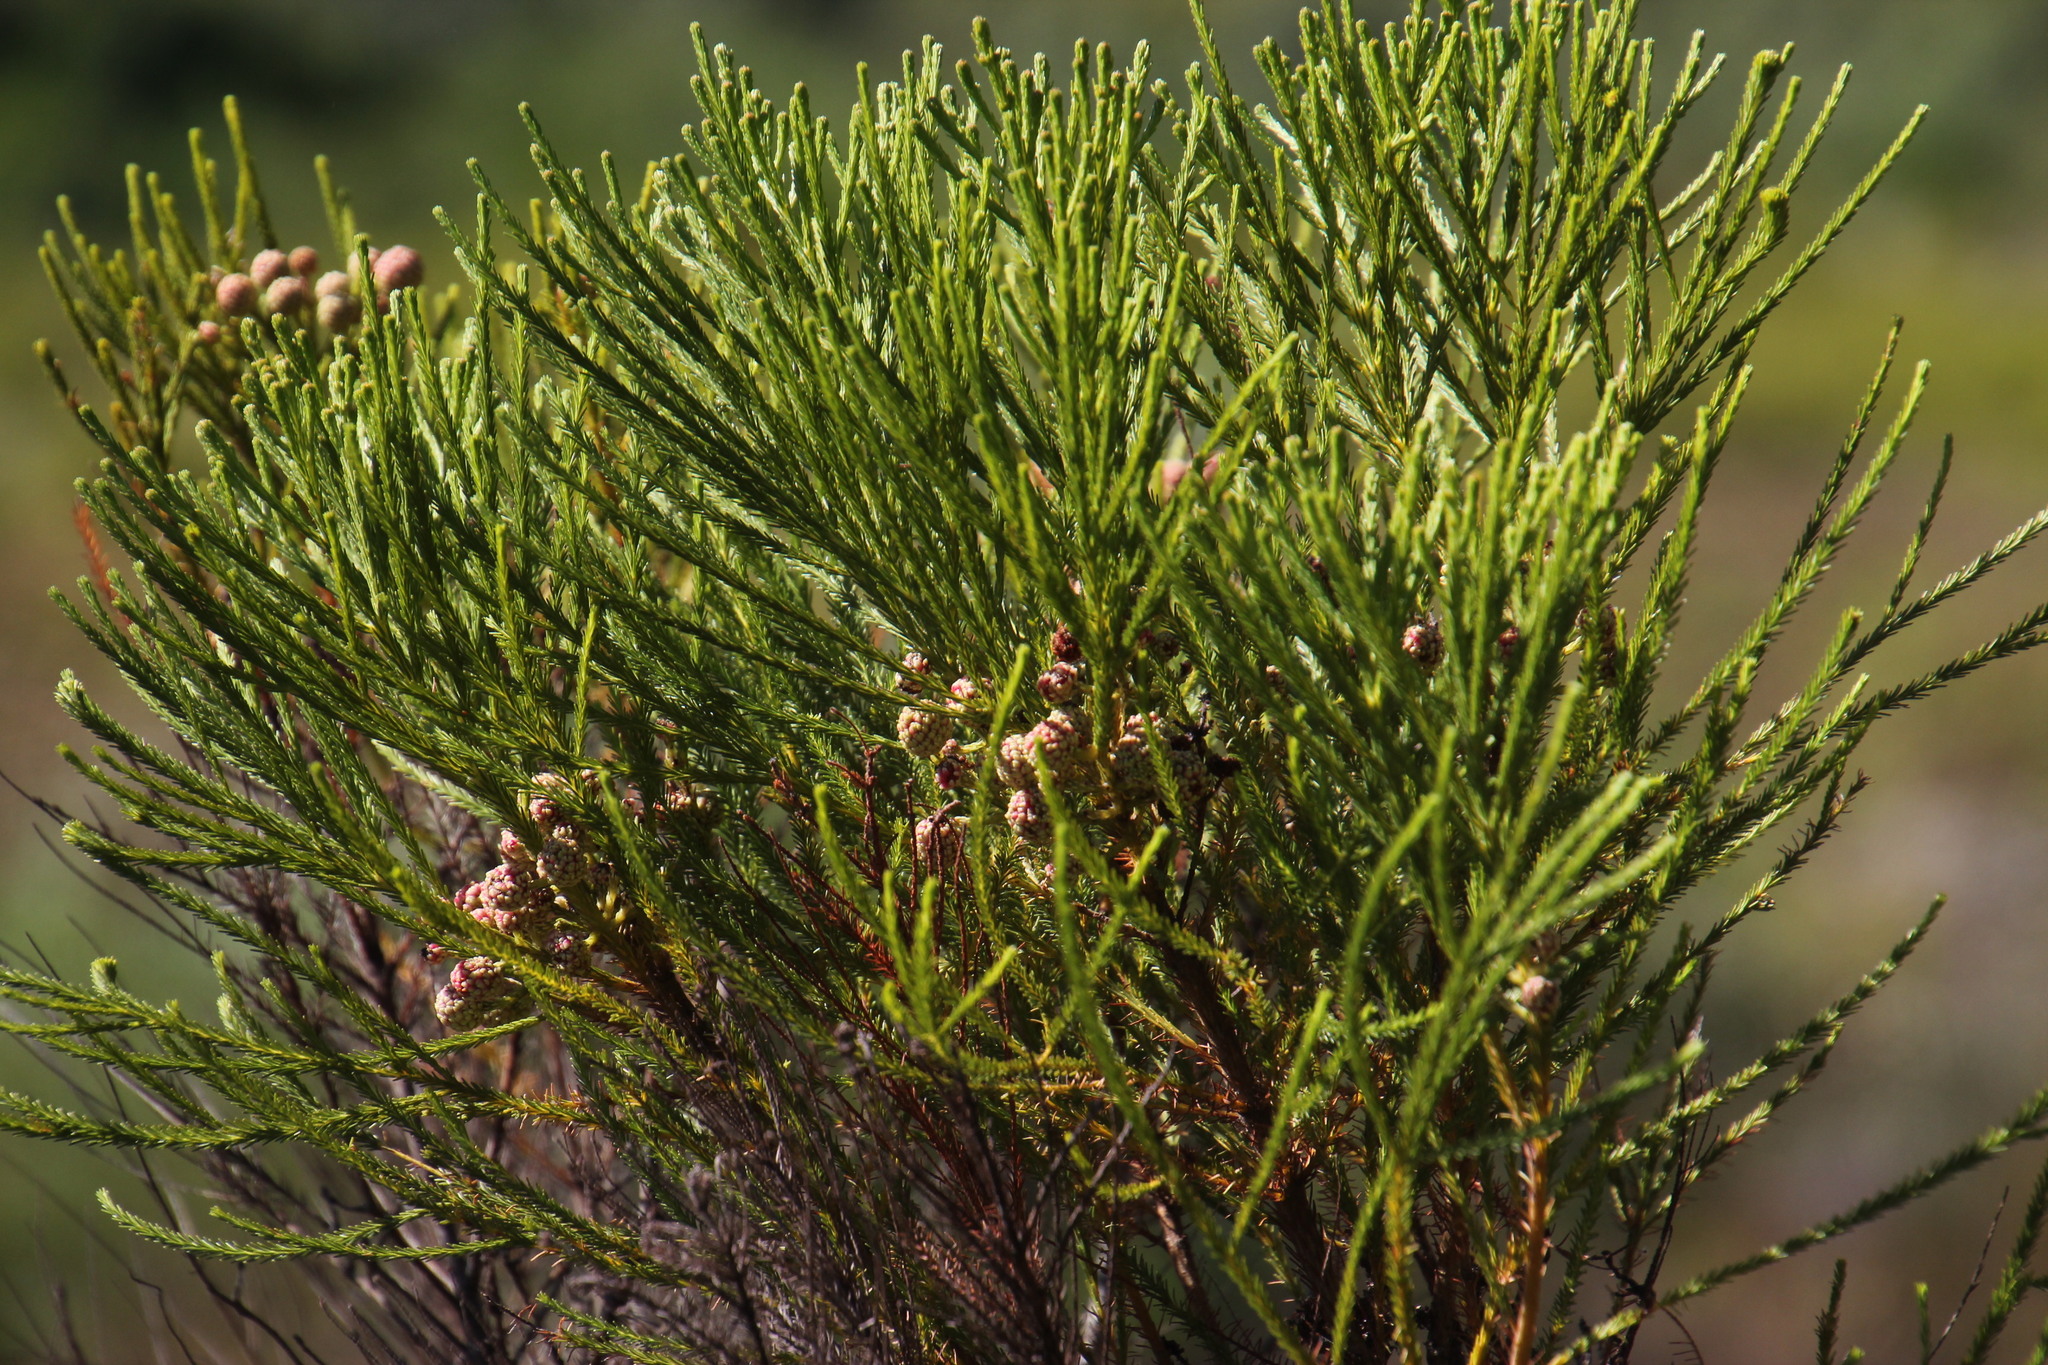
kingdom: Plantae
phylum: Tracheophyta
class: Magnoliopsida
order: Bruniales
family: Bruniaceae
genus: Berzelia
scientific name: Berzelia lanuginosa
